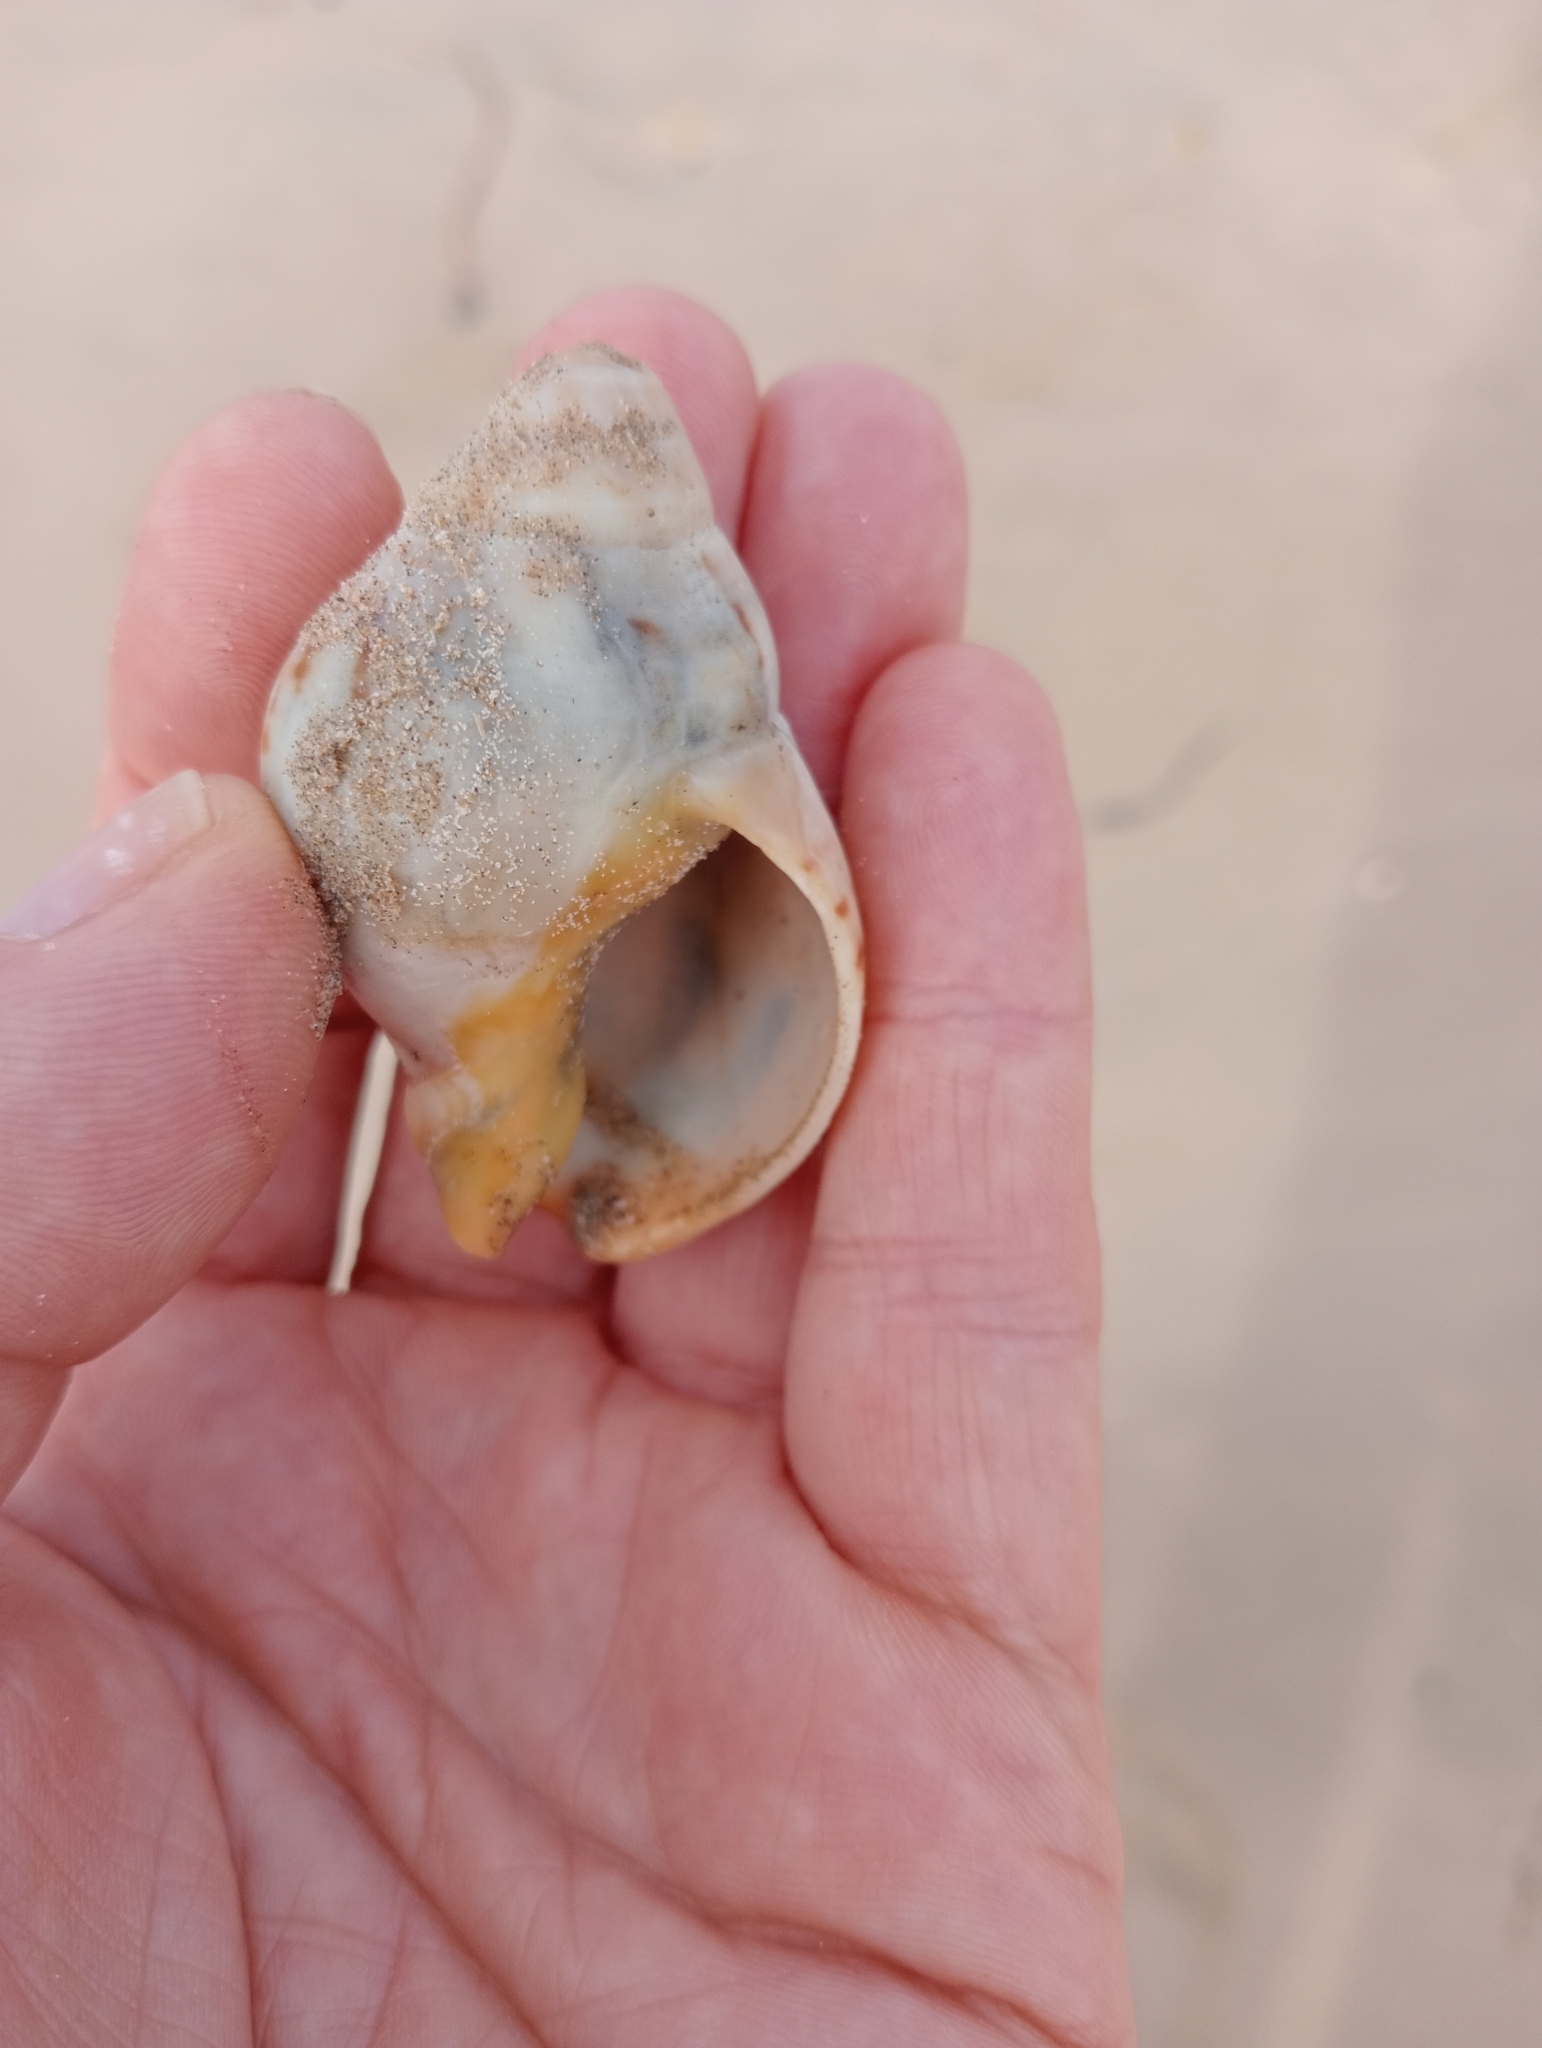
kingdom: Animalia
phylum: Mollusca
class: Gastropoda
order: Neogastropoda
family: Cominellidae
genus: Cominella
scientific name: Cominella adspersa
